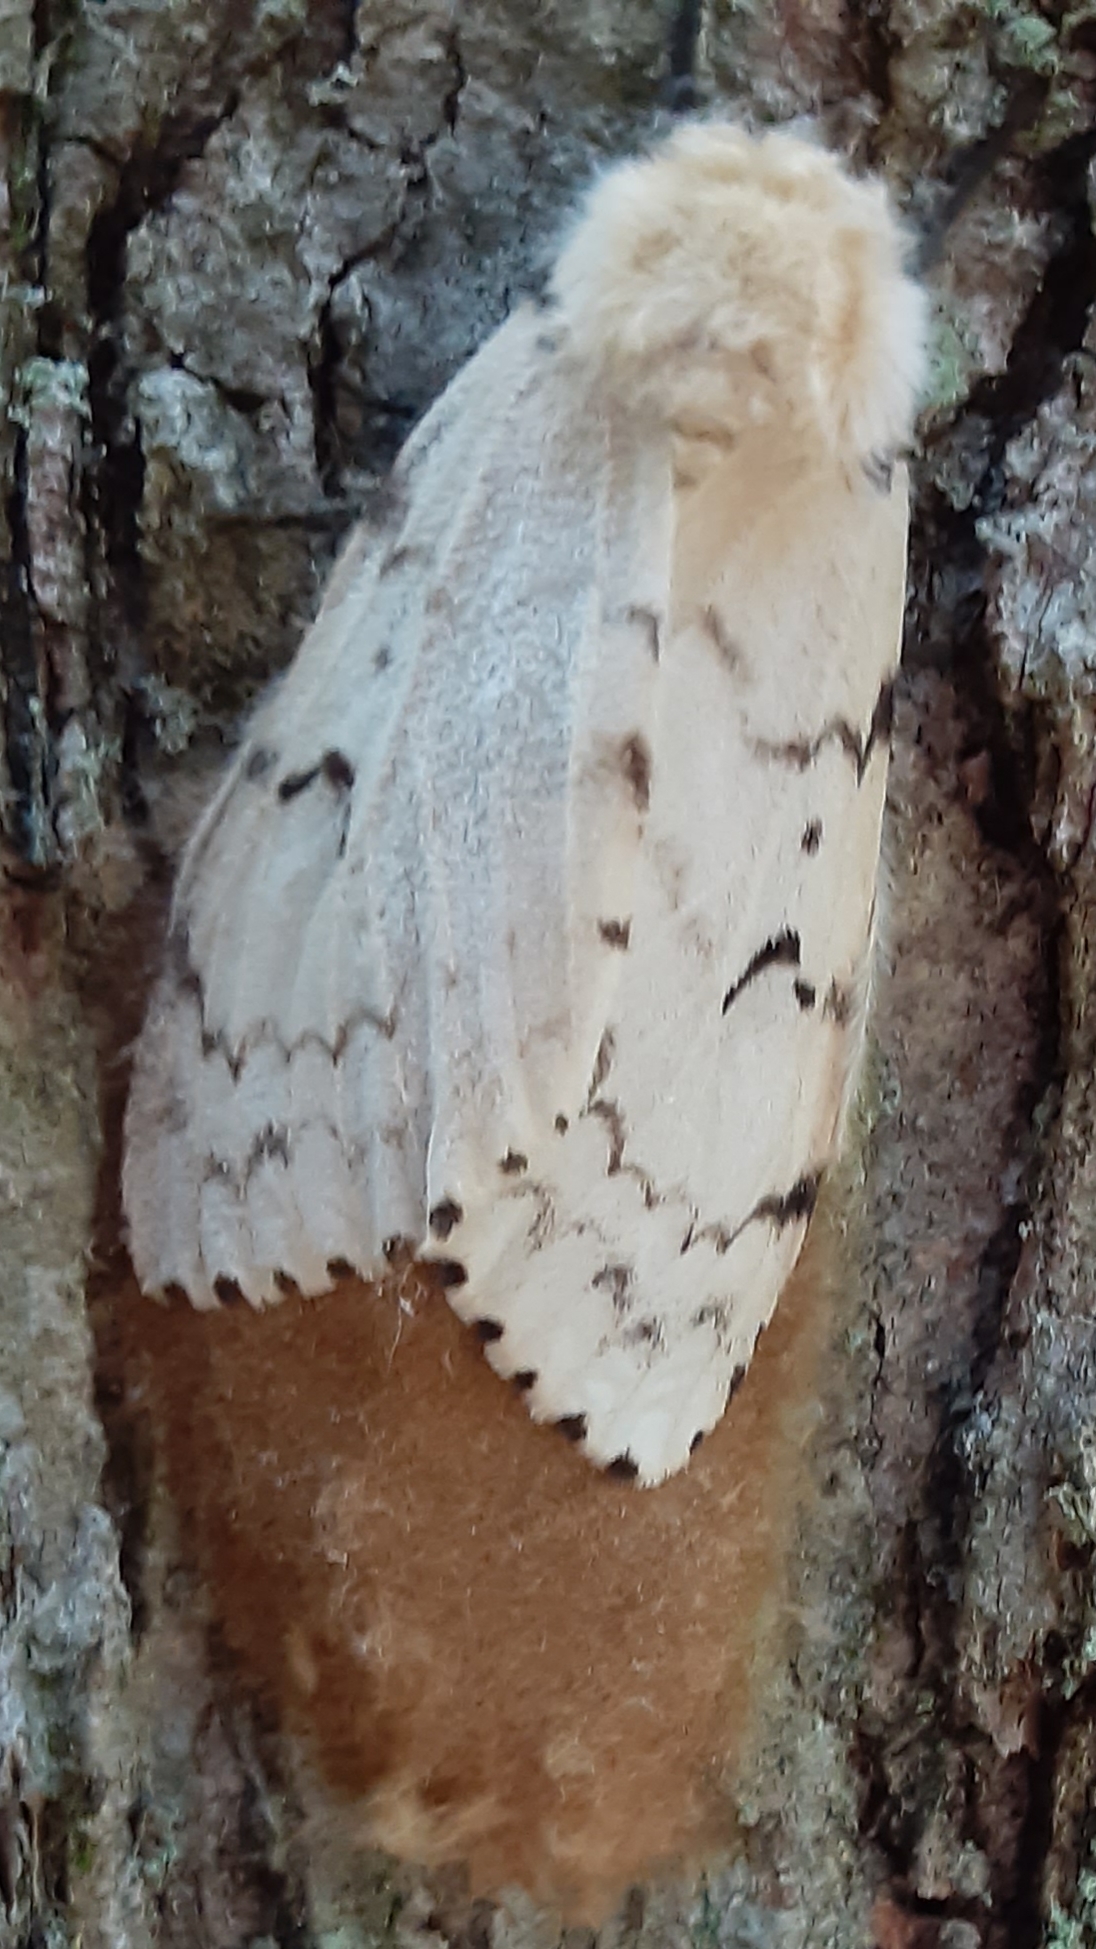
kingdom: Animalia
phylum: Arthropoda
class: Insecta
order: Lepidoptera
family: Erebidae
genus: Lymantria
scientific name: Lymantria dispar
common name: Gypsy moth
